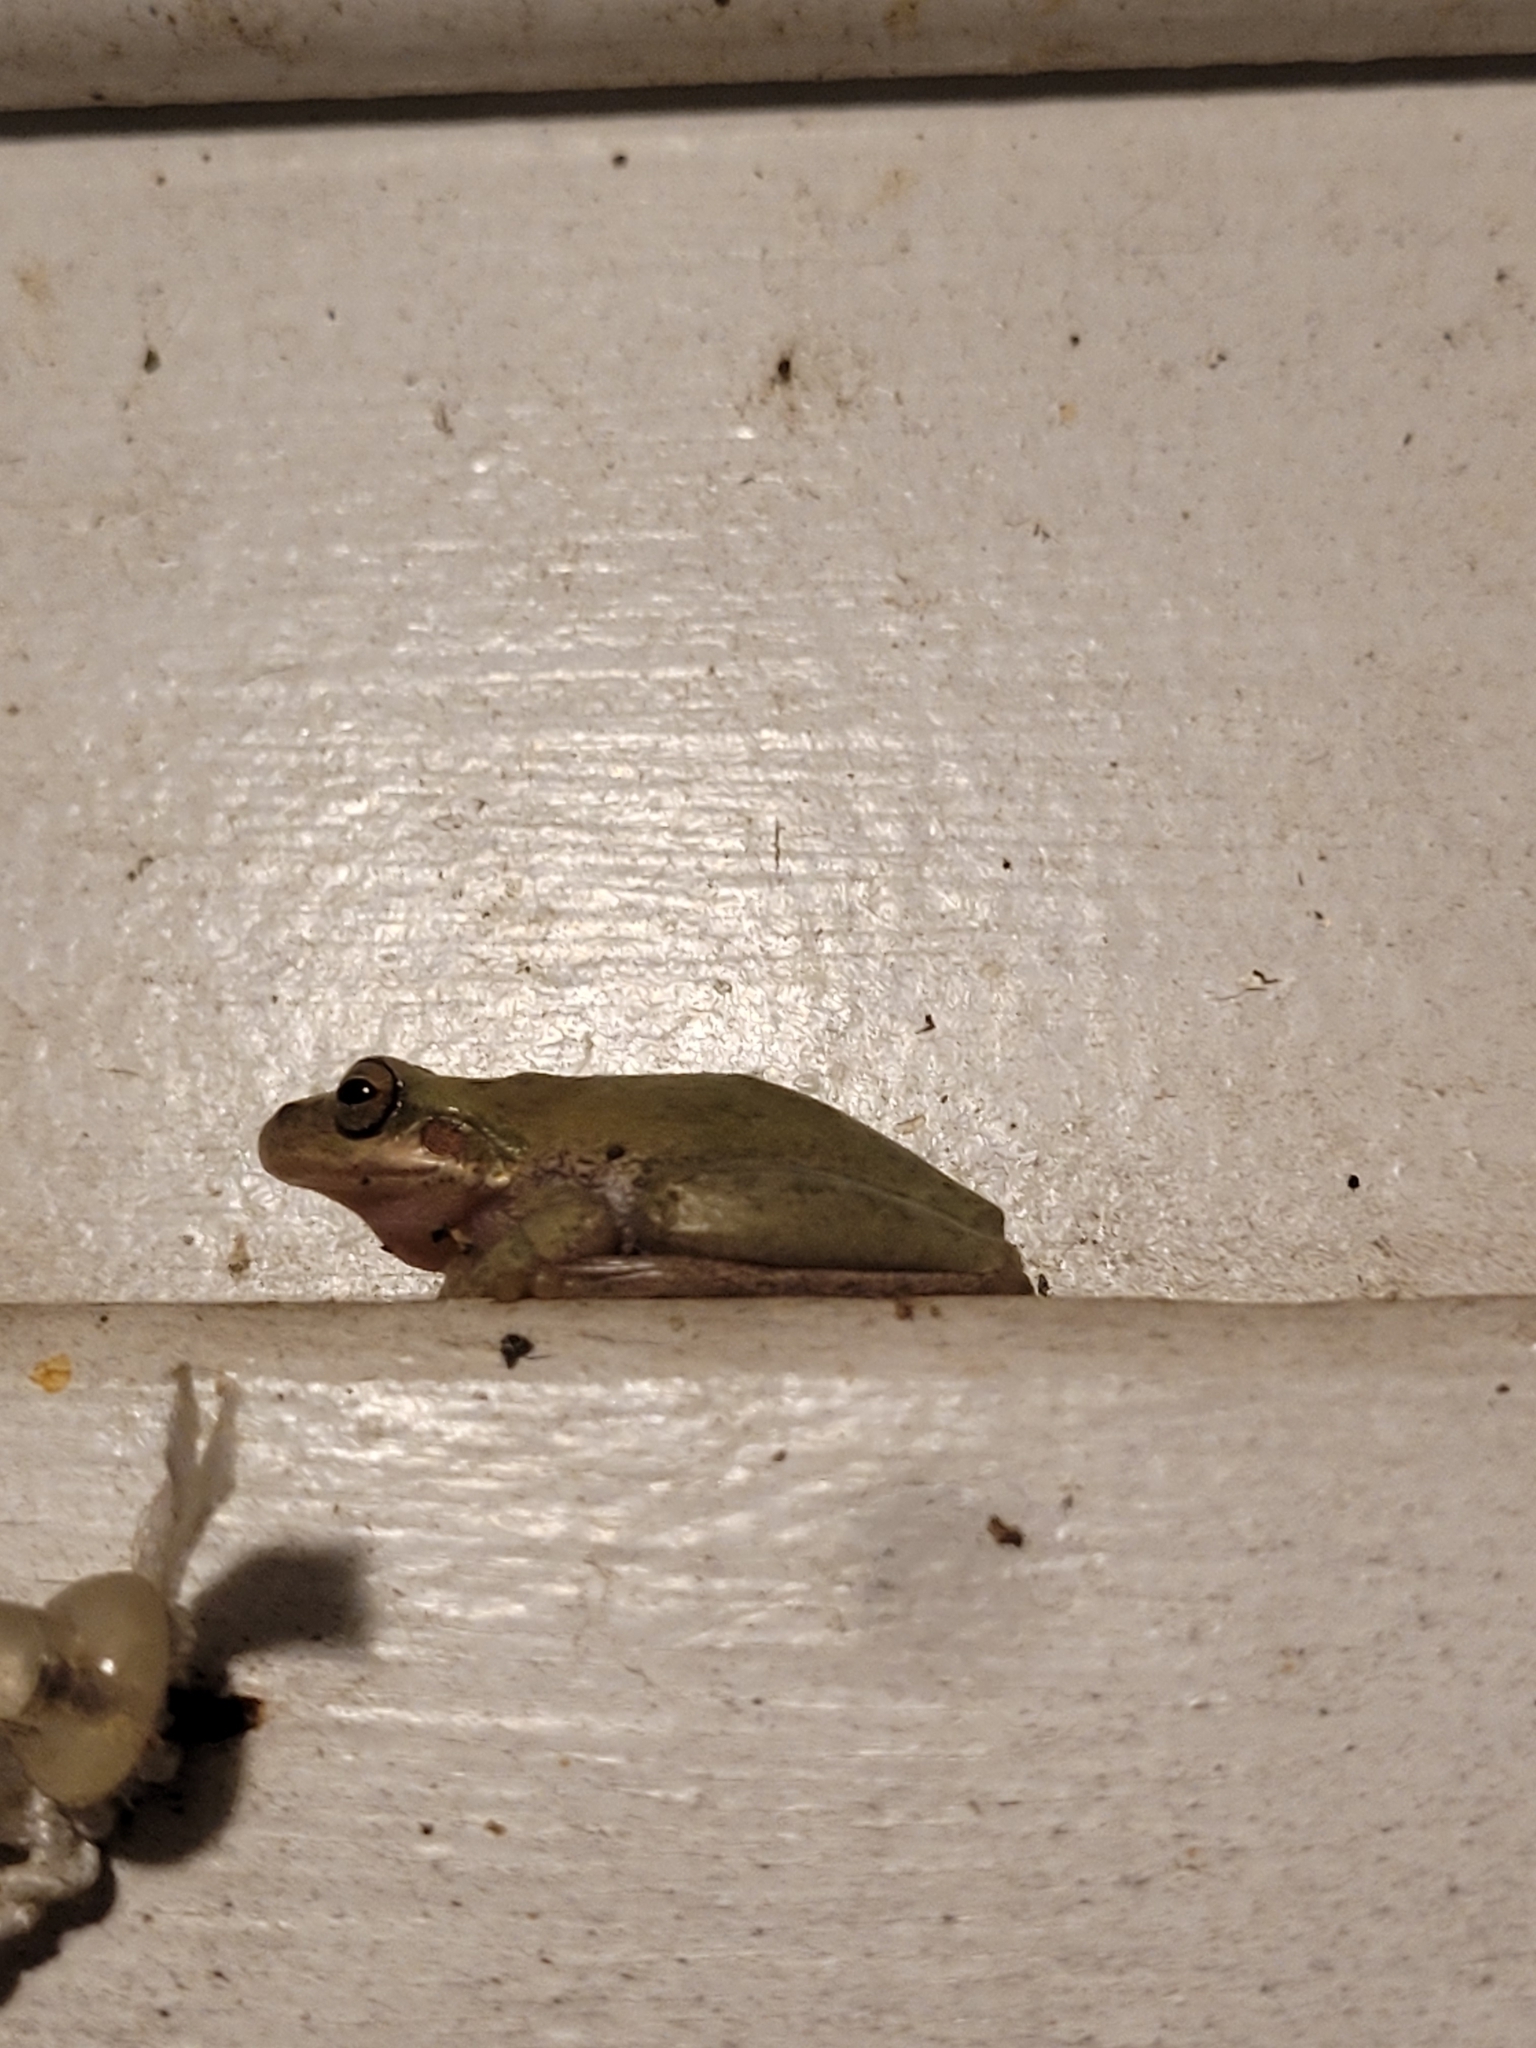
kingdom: Animalia
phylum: Chordata
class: Amphibia
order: Anura
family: Hylidae
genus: Dryophytes
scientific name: Dryophytes squirellus
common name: Squirrel treefrog
